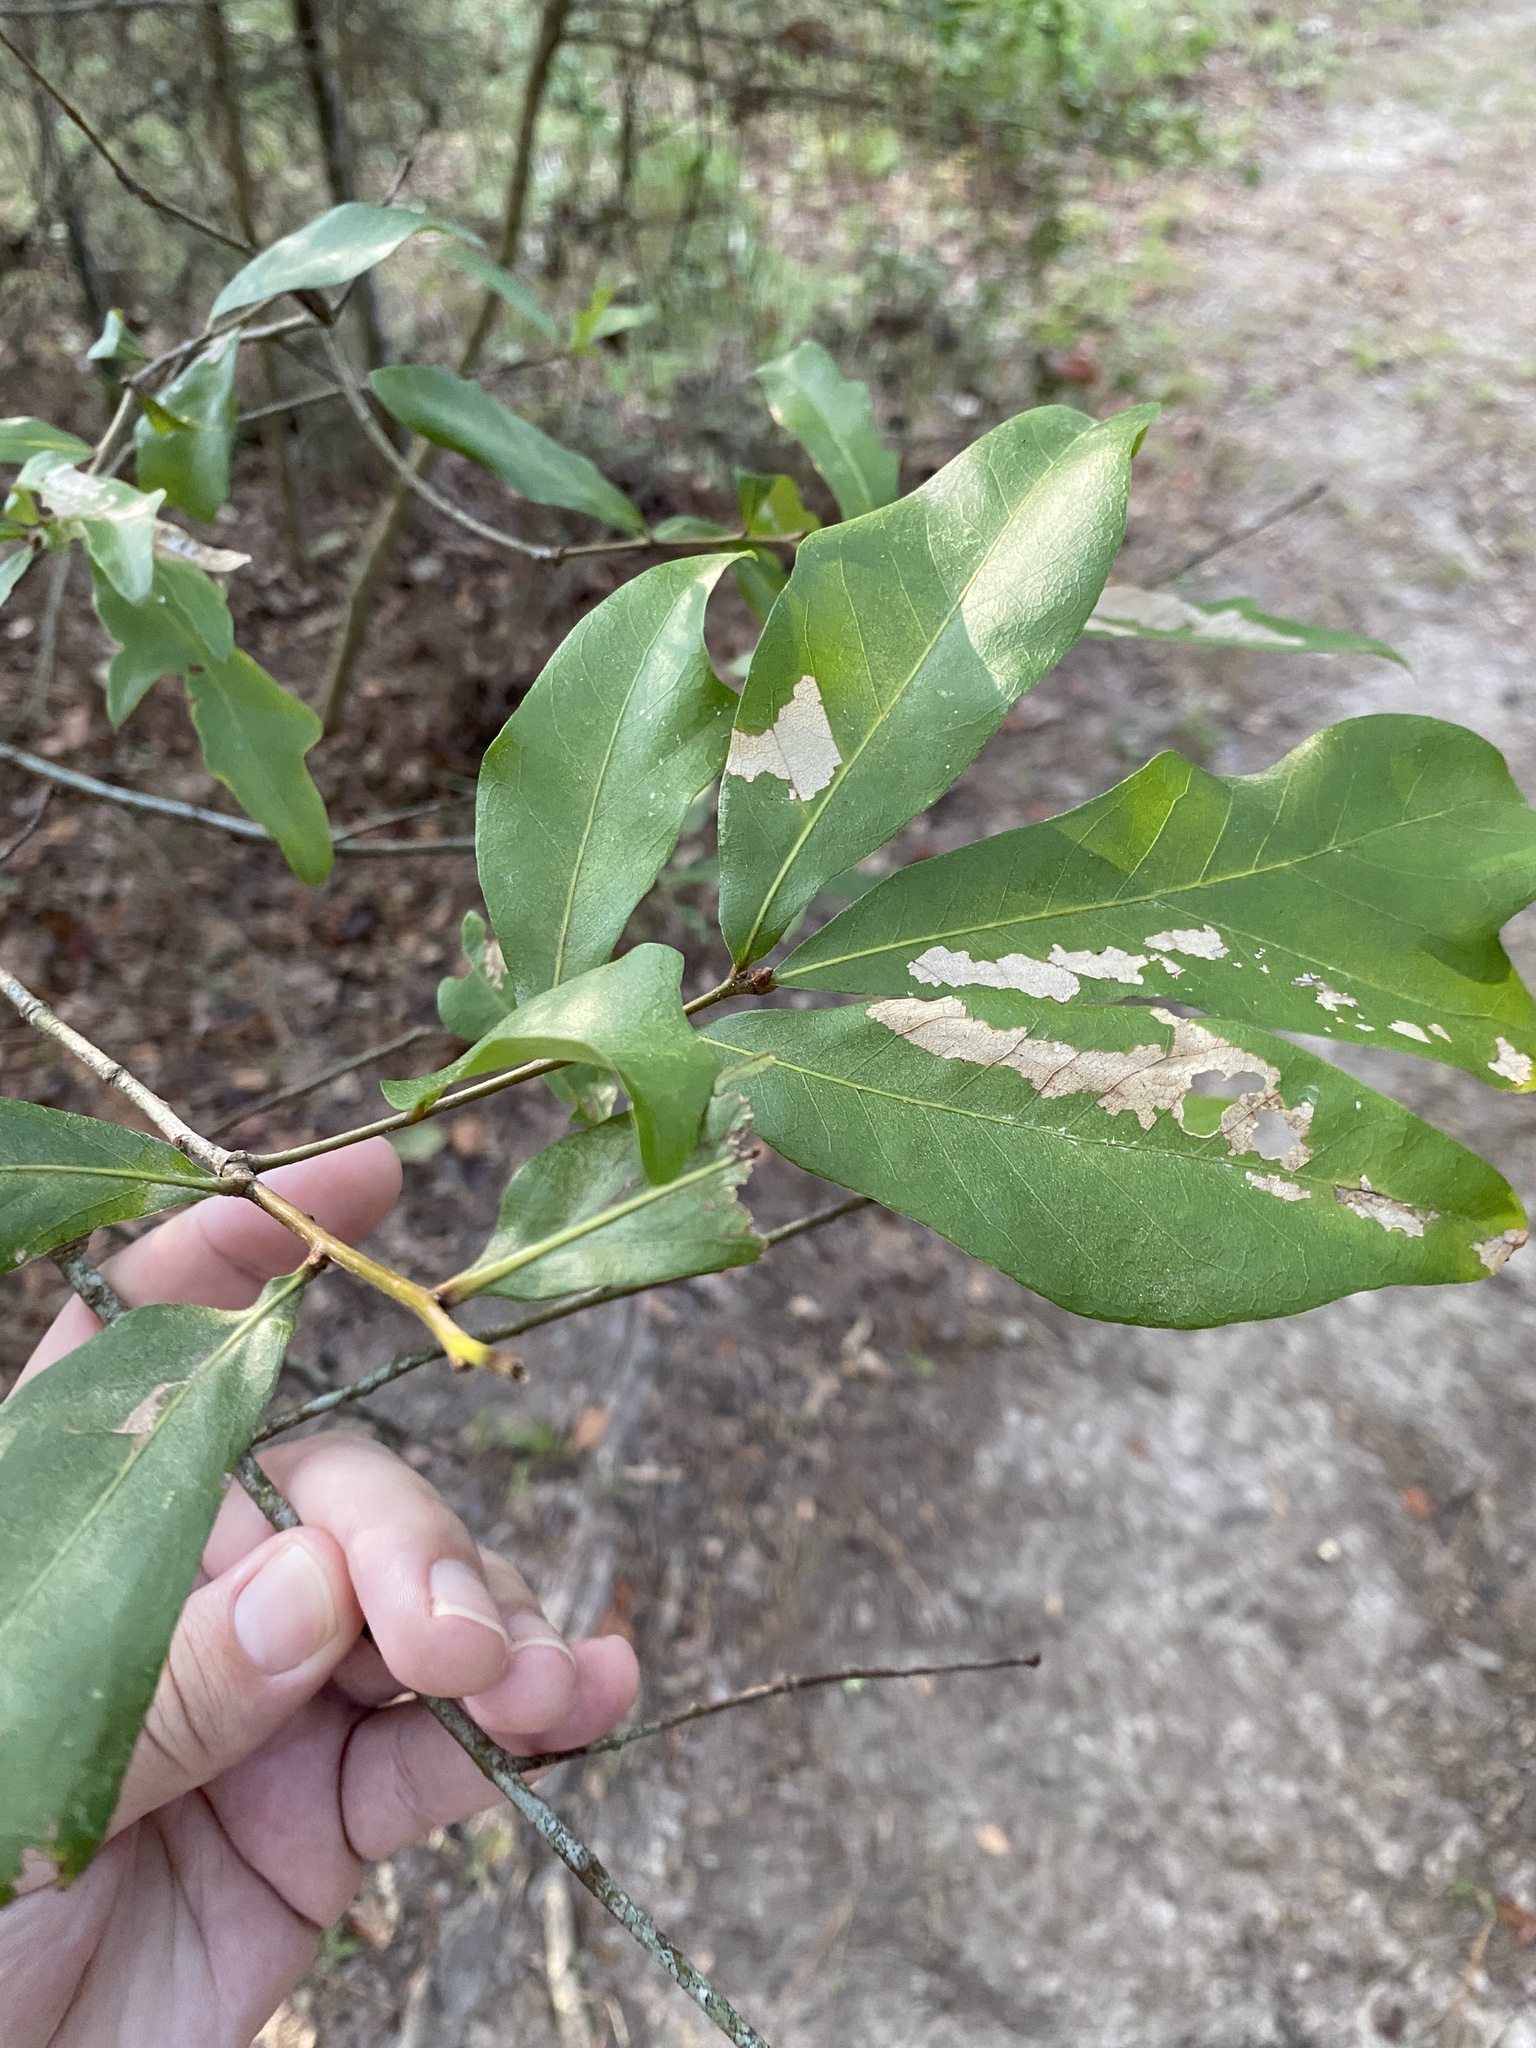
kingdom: Animalia
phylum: Arthropoda
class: Insecta
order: Hymenoptera
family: Cynipidae
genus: Callirhytis
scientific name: Callirhytis
